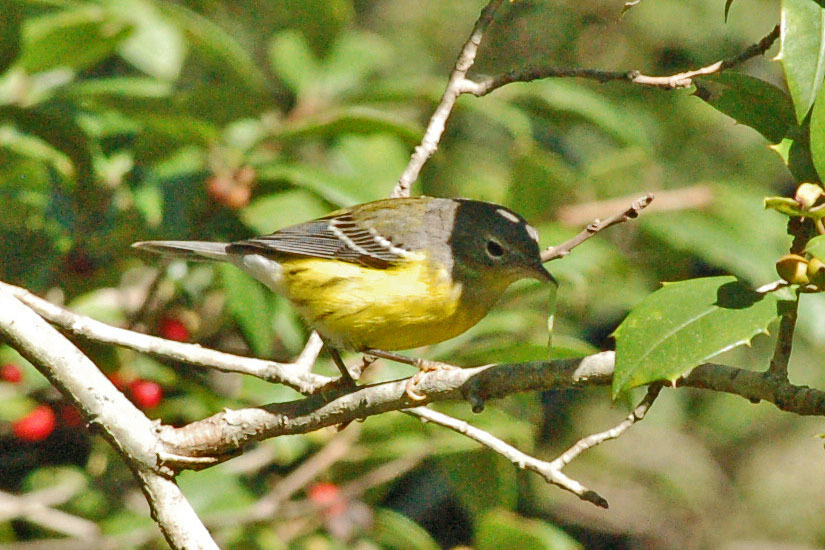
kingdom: Animalia
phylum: Chordata
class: Aves
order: Passeriformes
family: Parulidae
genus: Setophaga
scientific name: Setophaga magnolia
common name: Magnolia warbler
